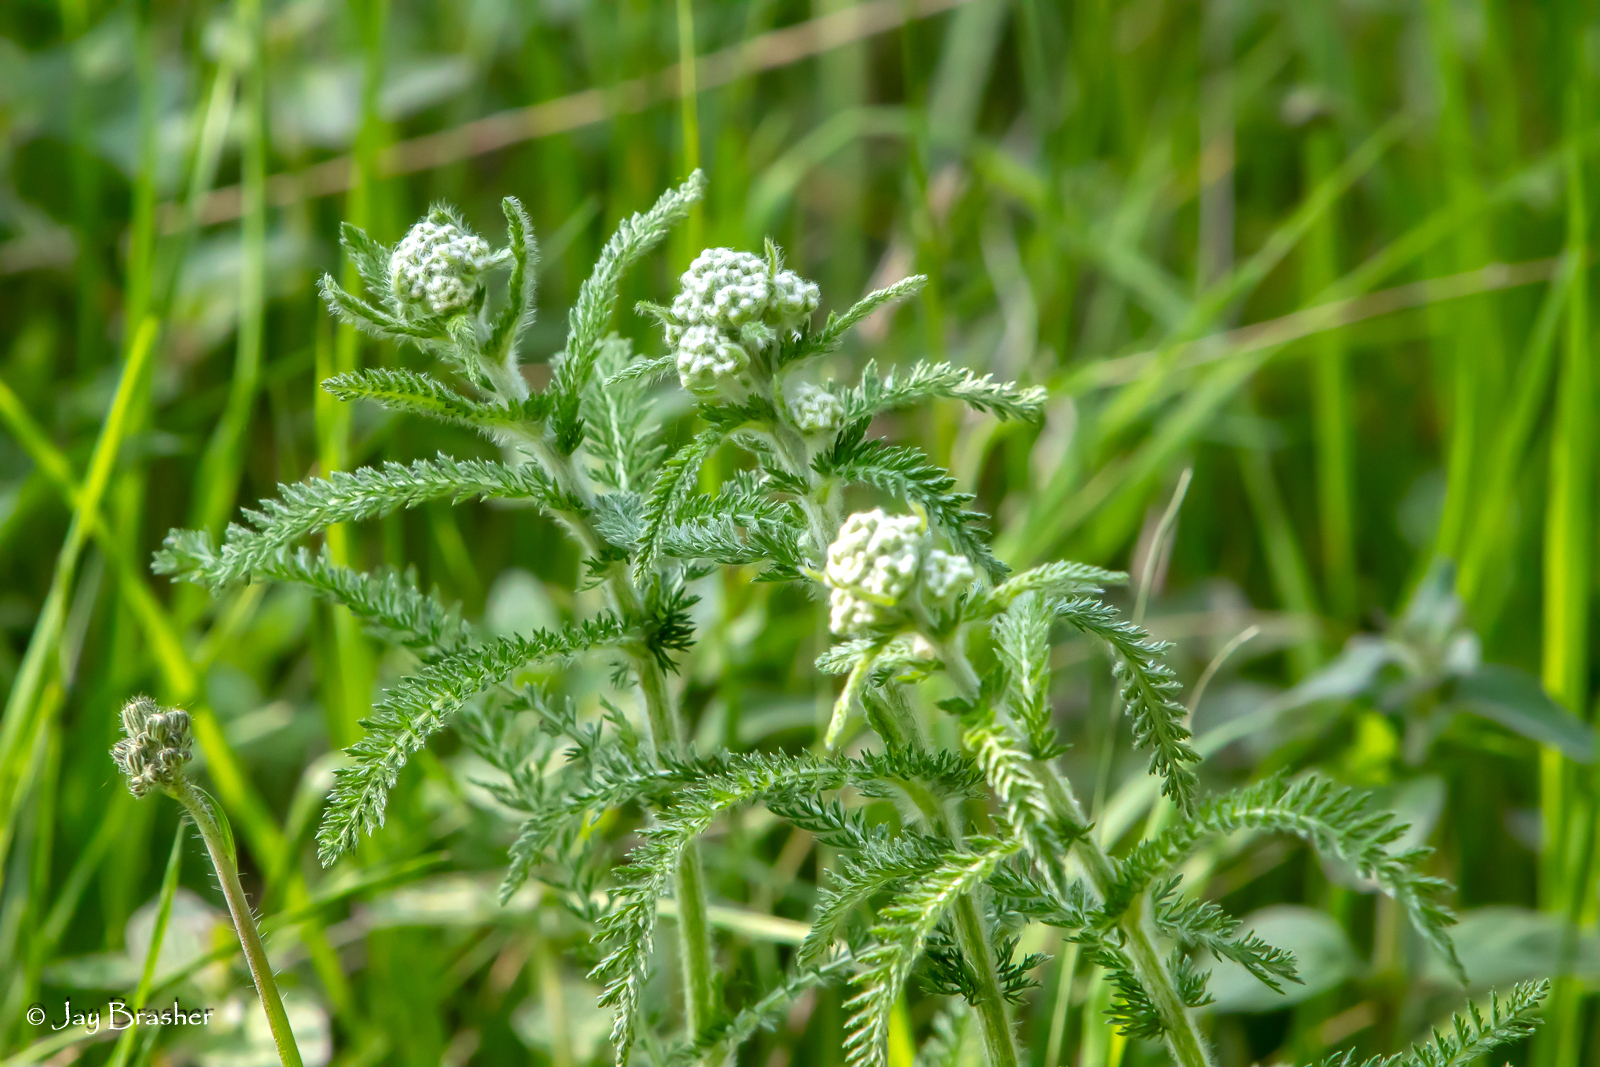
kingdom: Plantae
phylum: Tracheophyta
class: Magnoliopsida
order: Asterales
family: Asteraceae
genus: Achillea
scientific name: Achillea millefolium
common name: Yarrow
